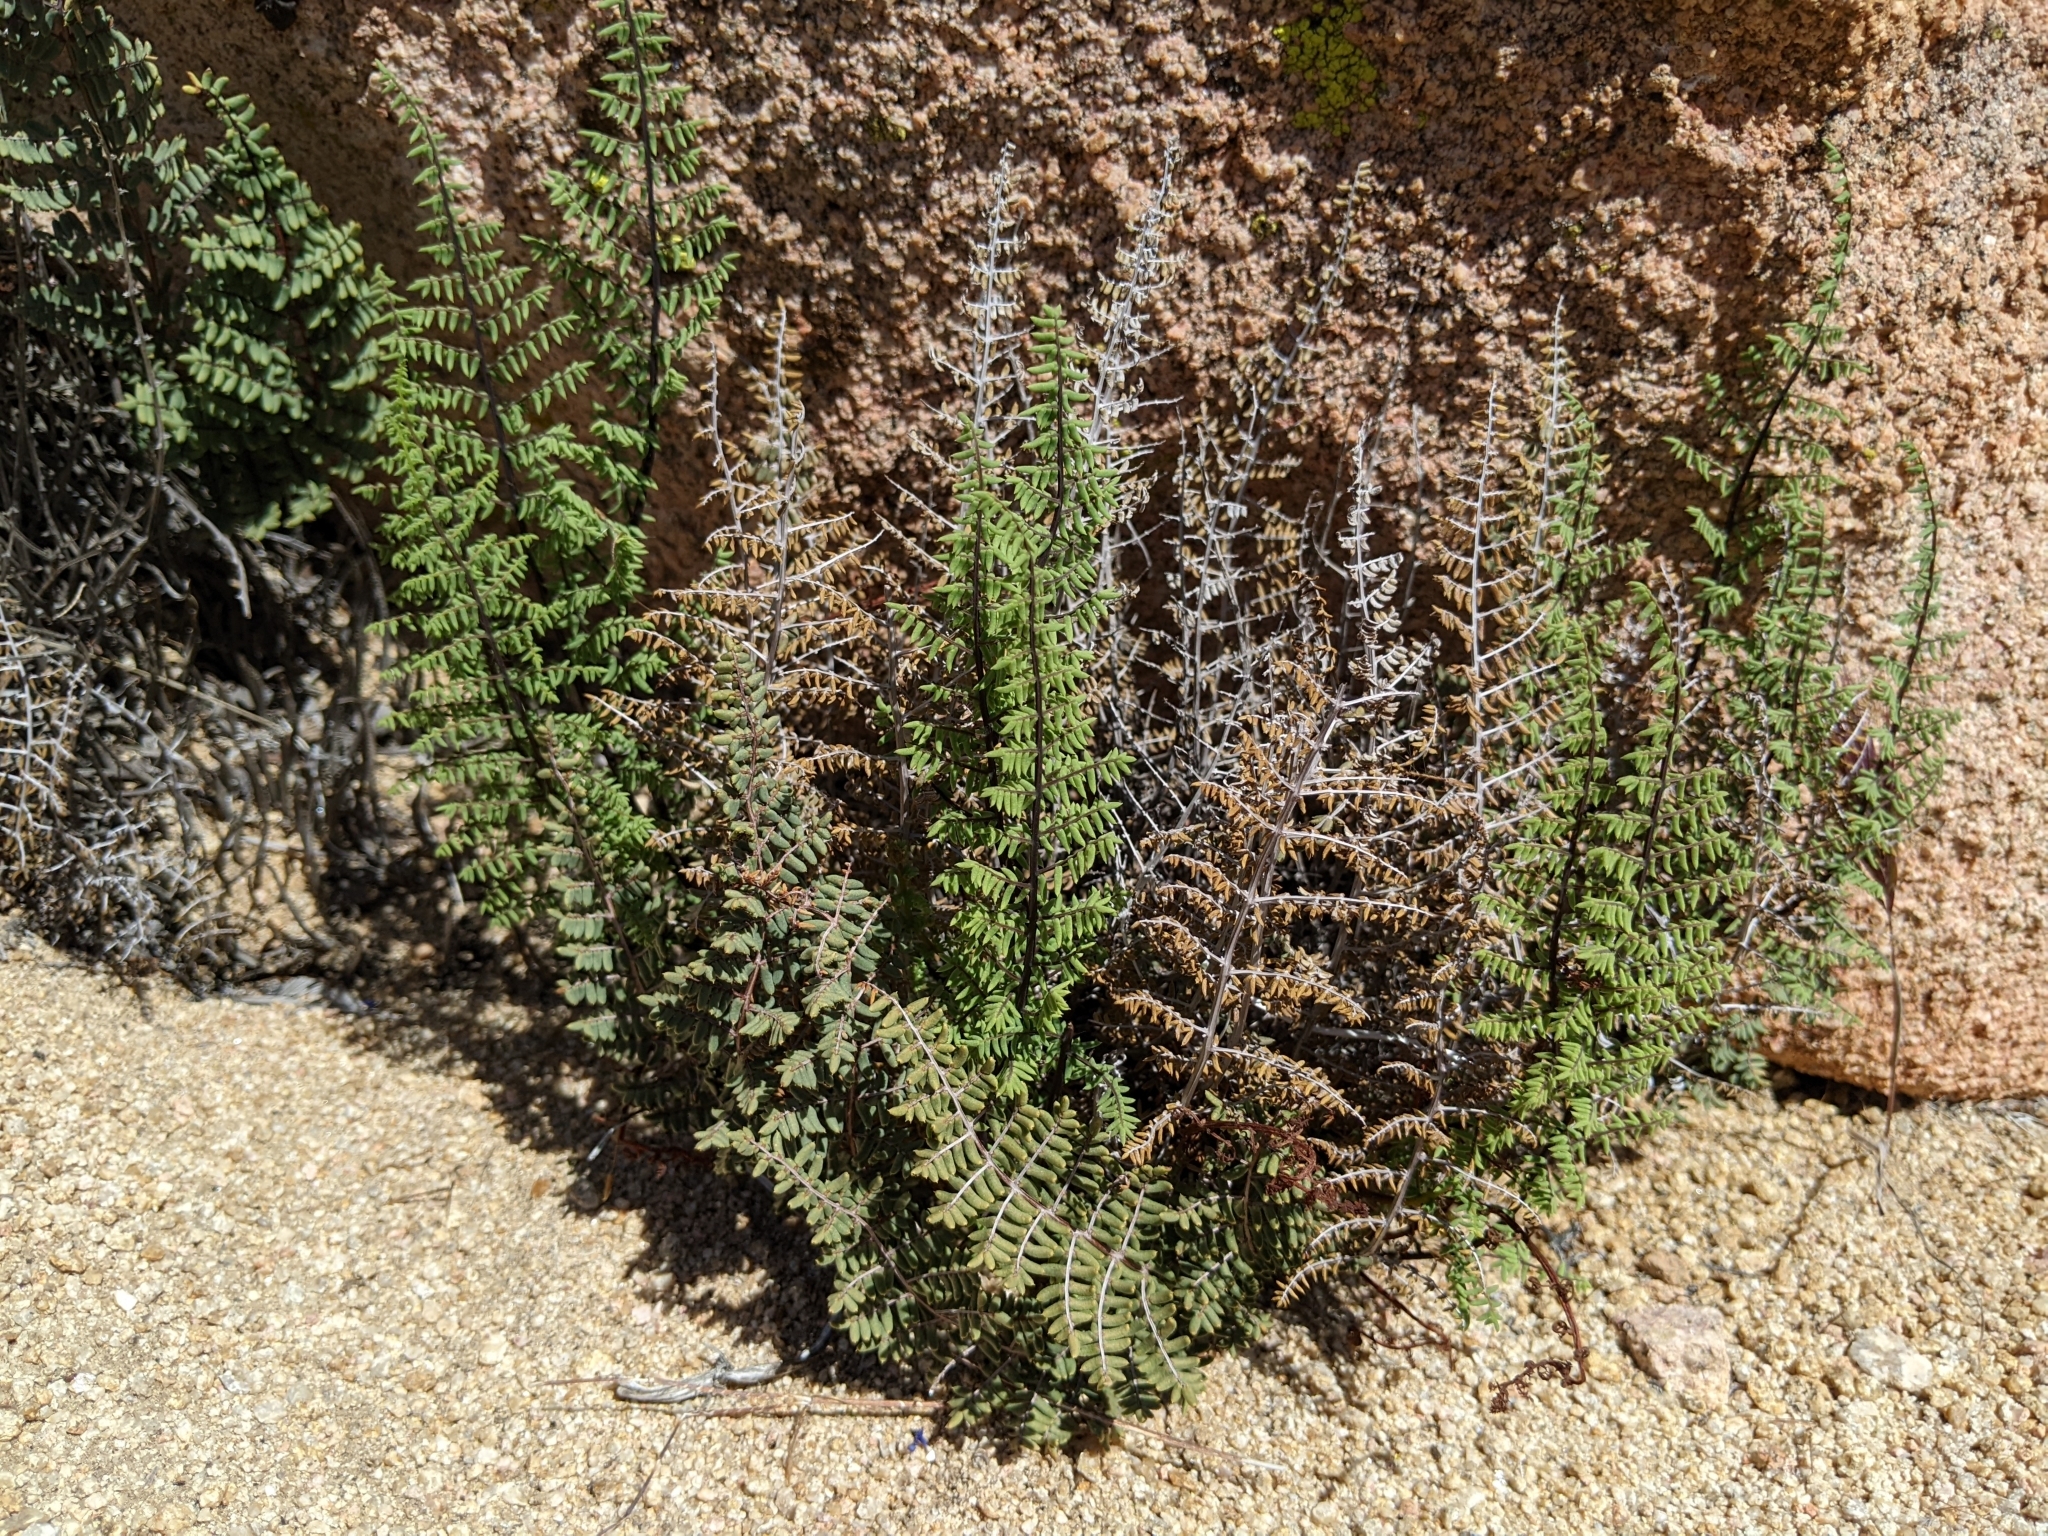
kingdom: Plantae
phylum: Tracheophyta
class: Polypodiopsida
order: Polypodiales
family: Pteridaceae
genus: Pellaea
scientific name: Pellaea mucronata
